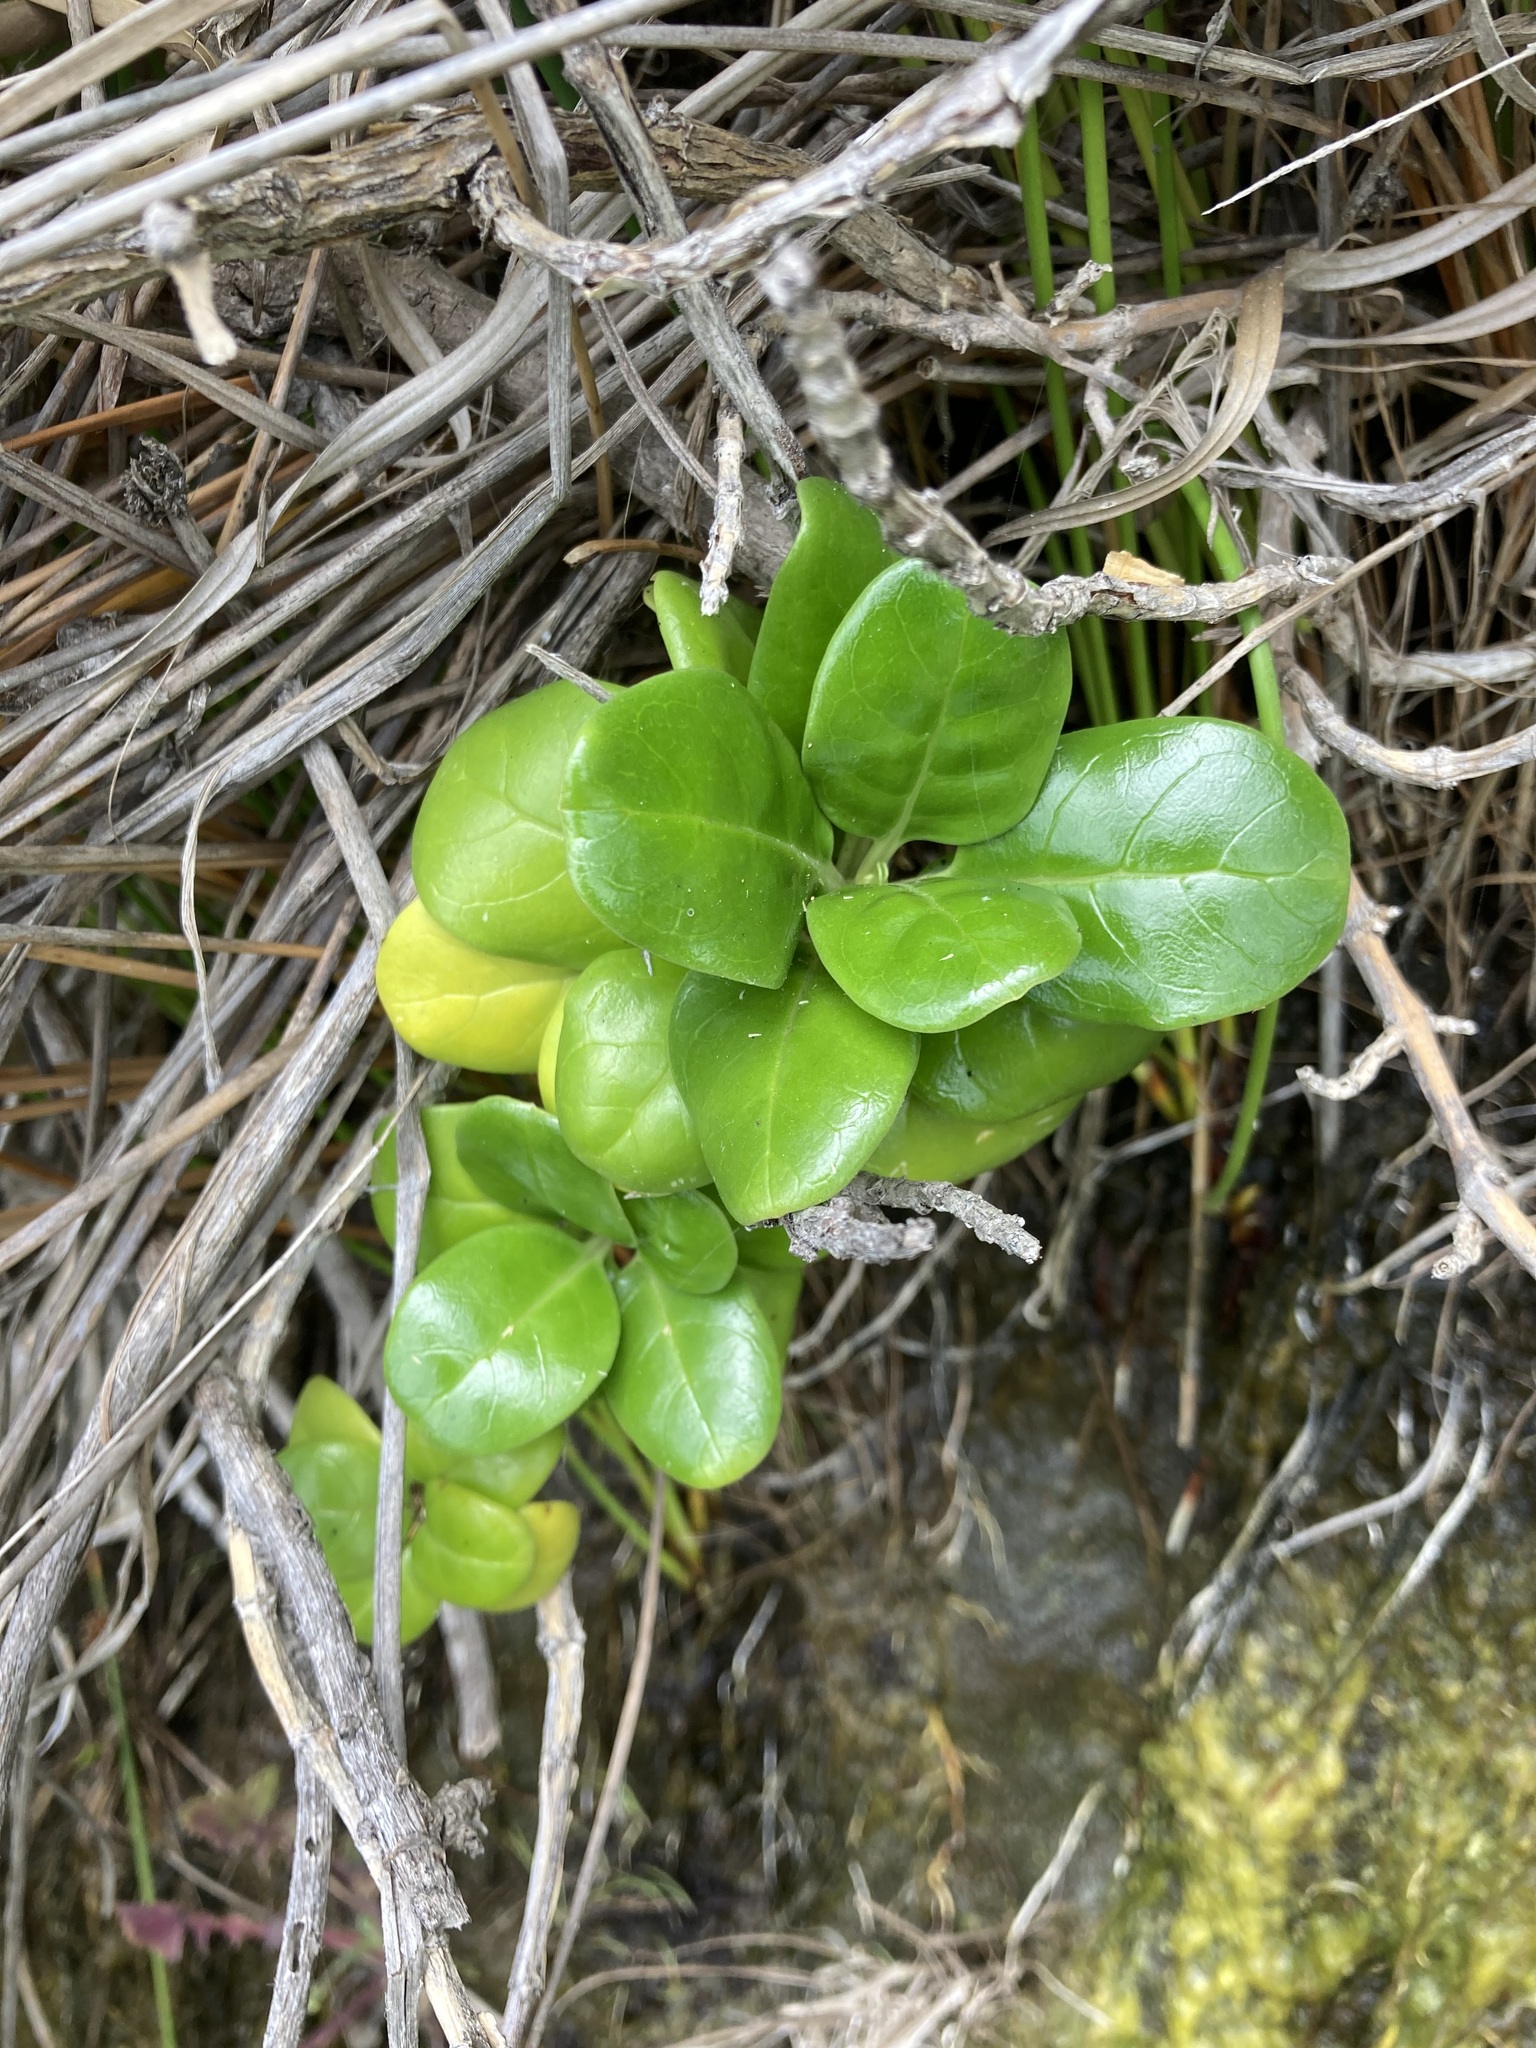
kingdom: Plantae
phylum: Tracheophyta
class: Magnoliopsida
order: Gentianales
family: Rubiaceae
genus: Coprosma
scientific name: Coprosma repens
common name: Tree bedstraw
